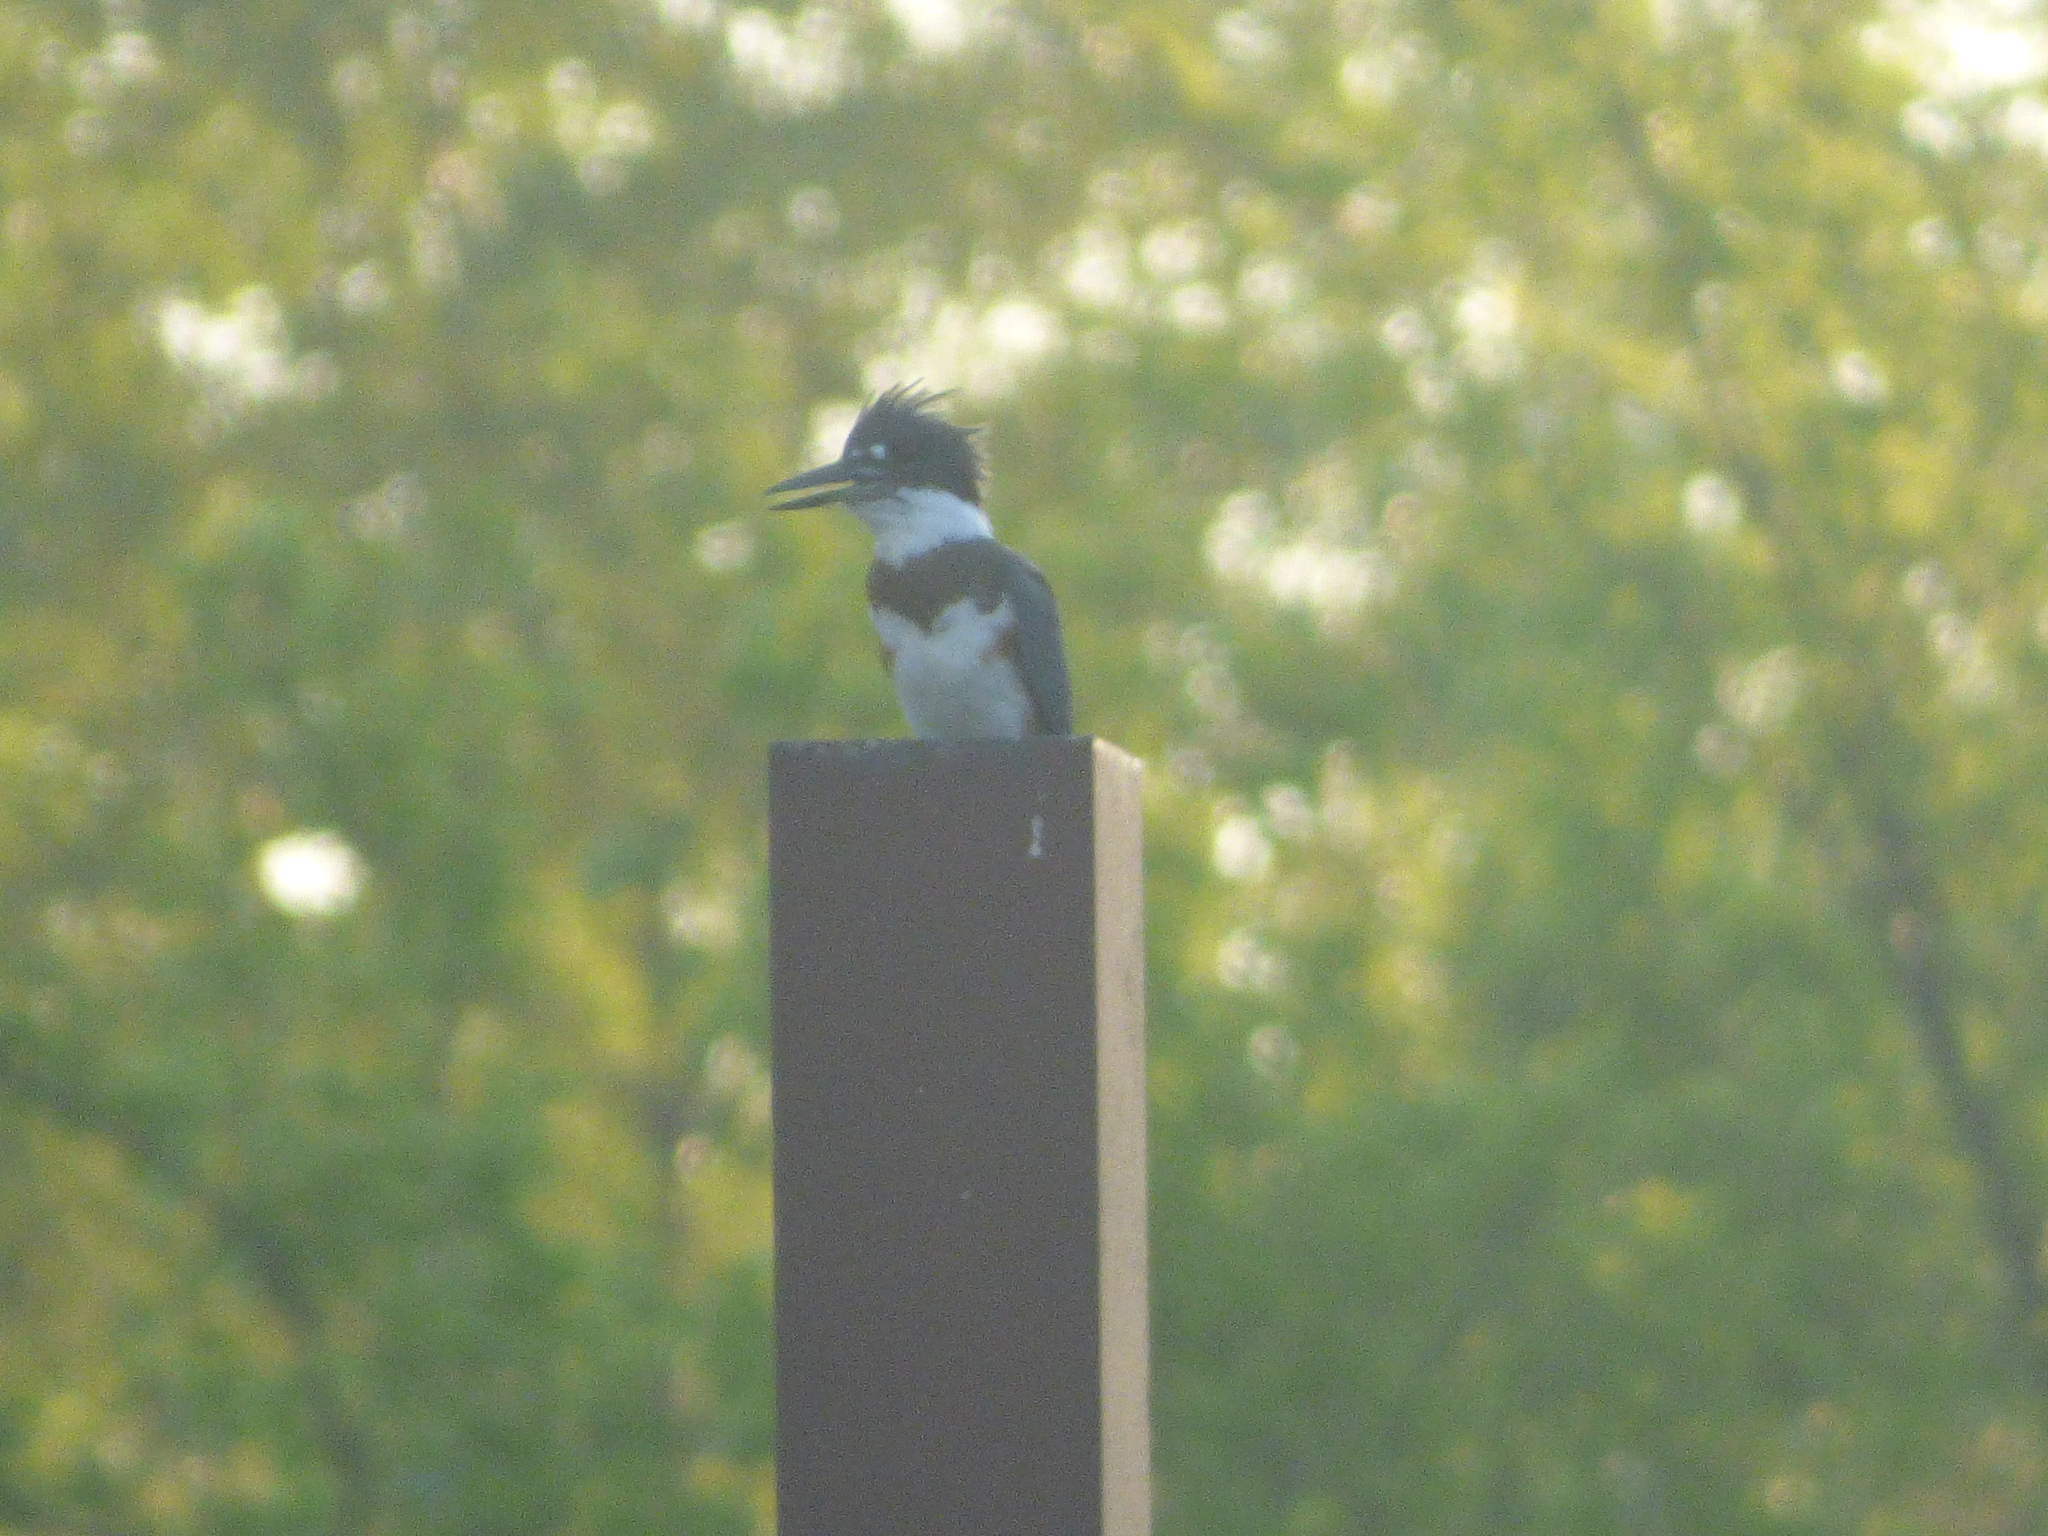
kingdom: Animalia
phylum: Chordata
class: Aves
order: Coraciiformes
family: Alcedinidae
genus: Megaceryle
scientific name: Megaceryle alcyon
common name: Belted kingfisher
